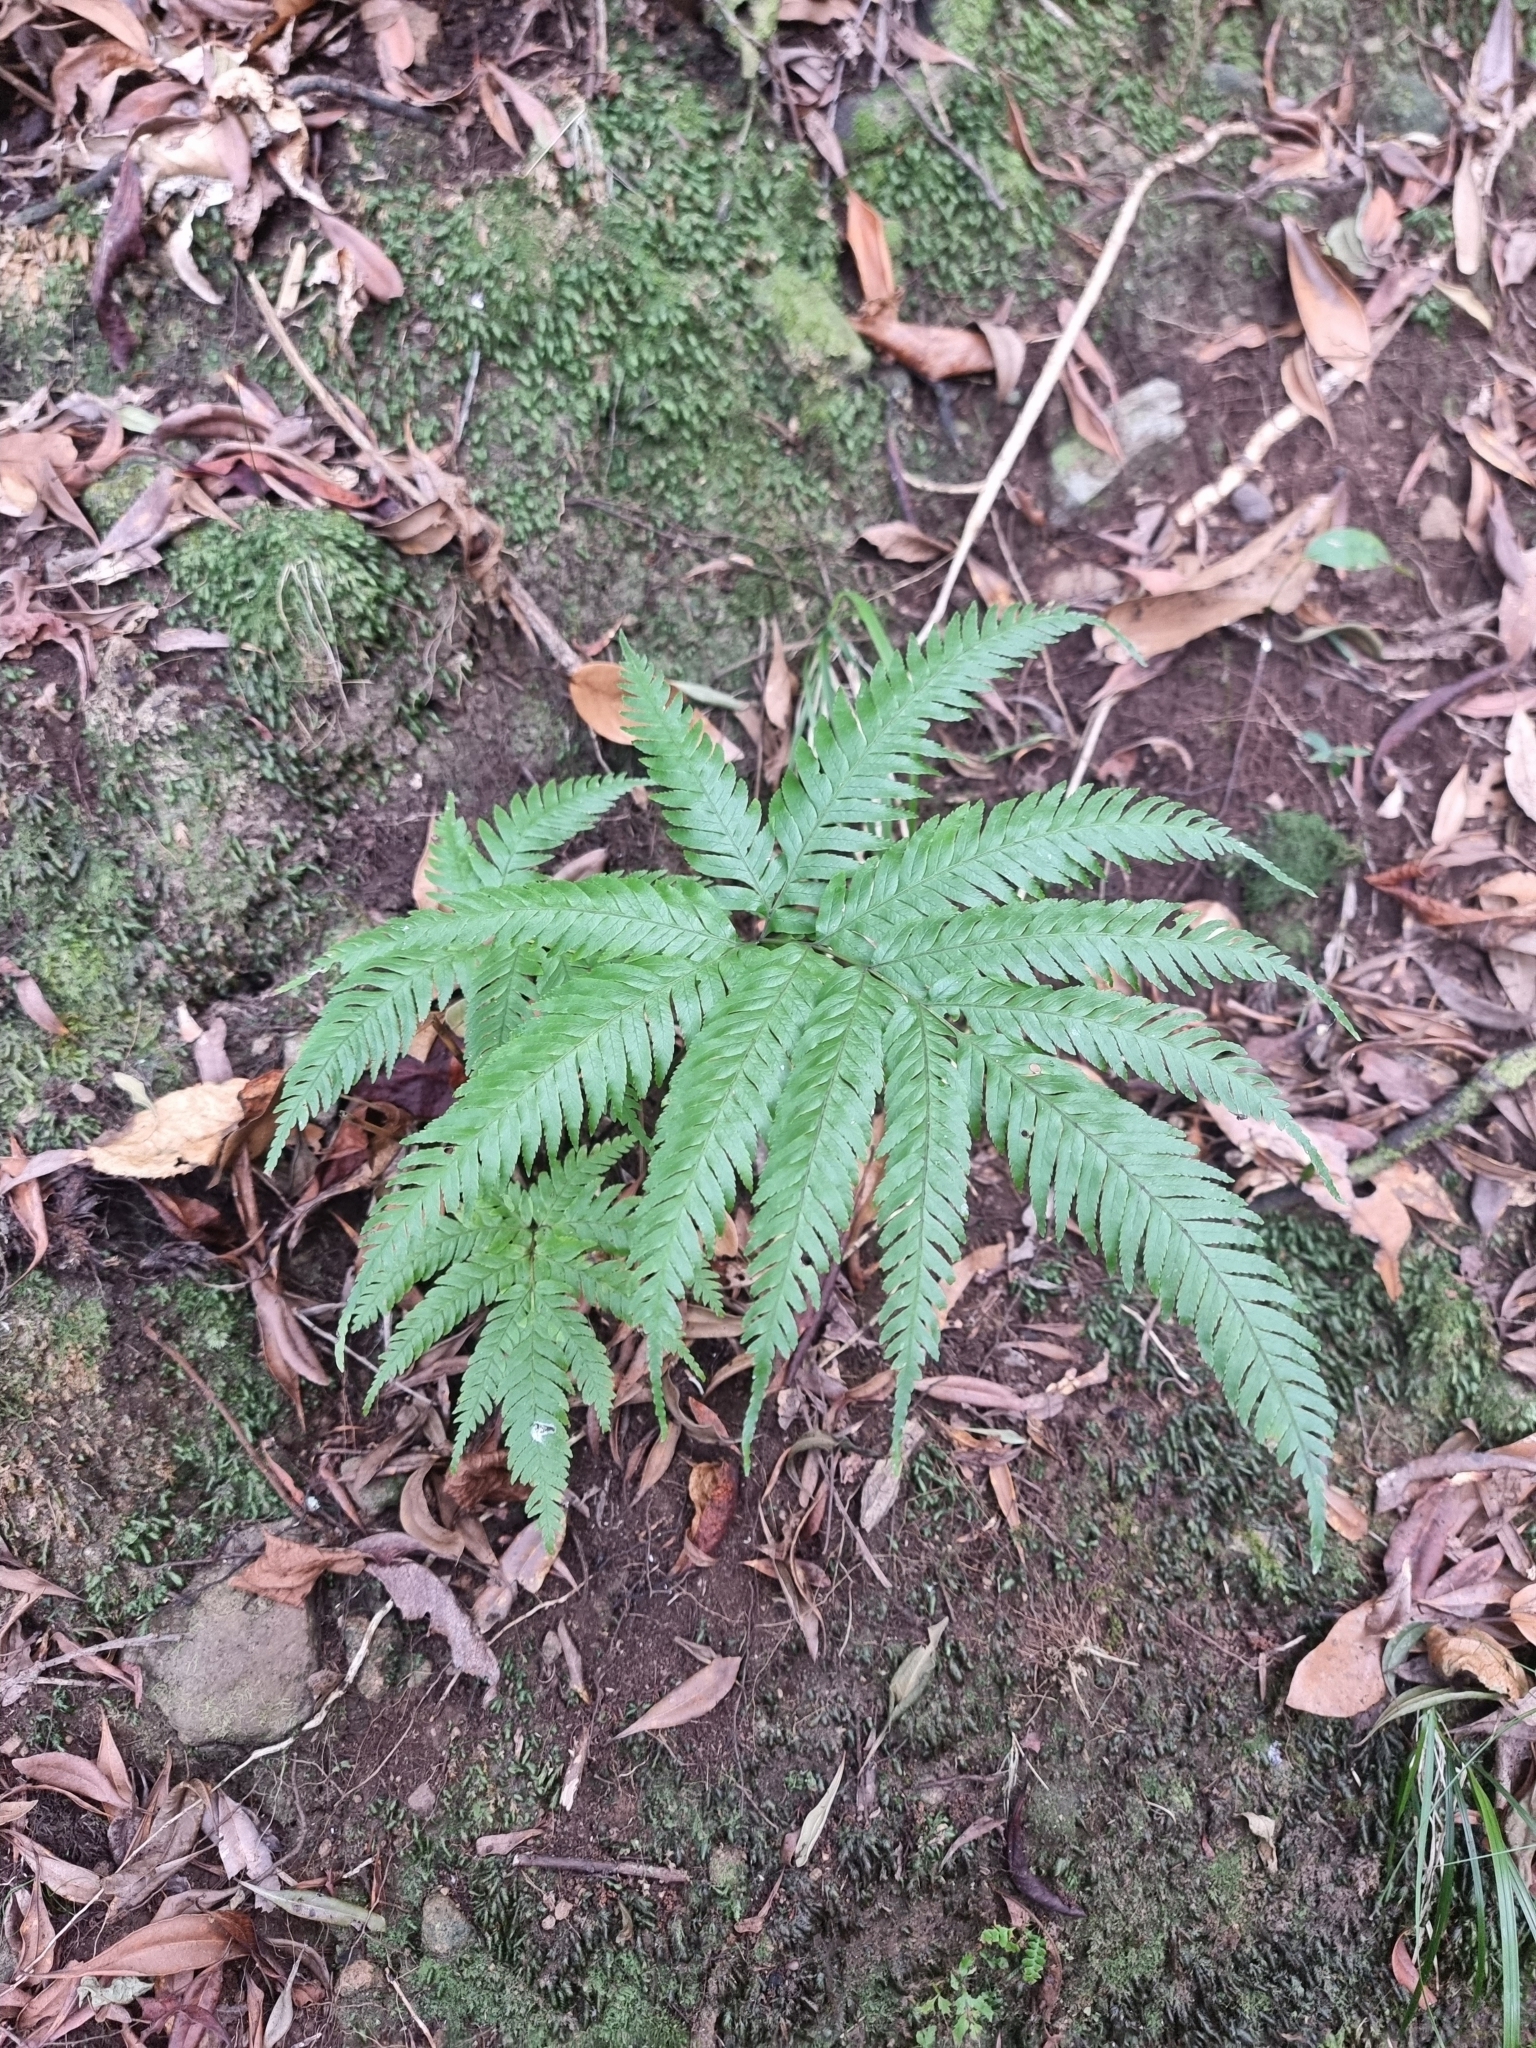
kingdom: Plantae
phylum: Tracheophyta
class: Polypodiopsida
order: Polypodiales
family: Pteridaceae
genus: Pteris
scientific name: Pteris incompleta
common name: Laurisilva brake
